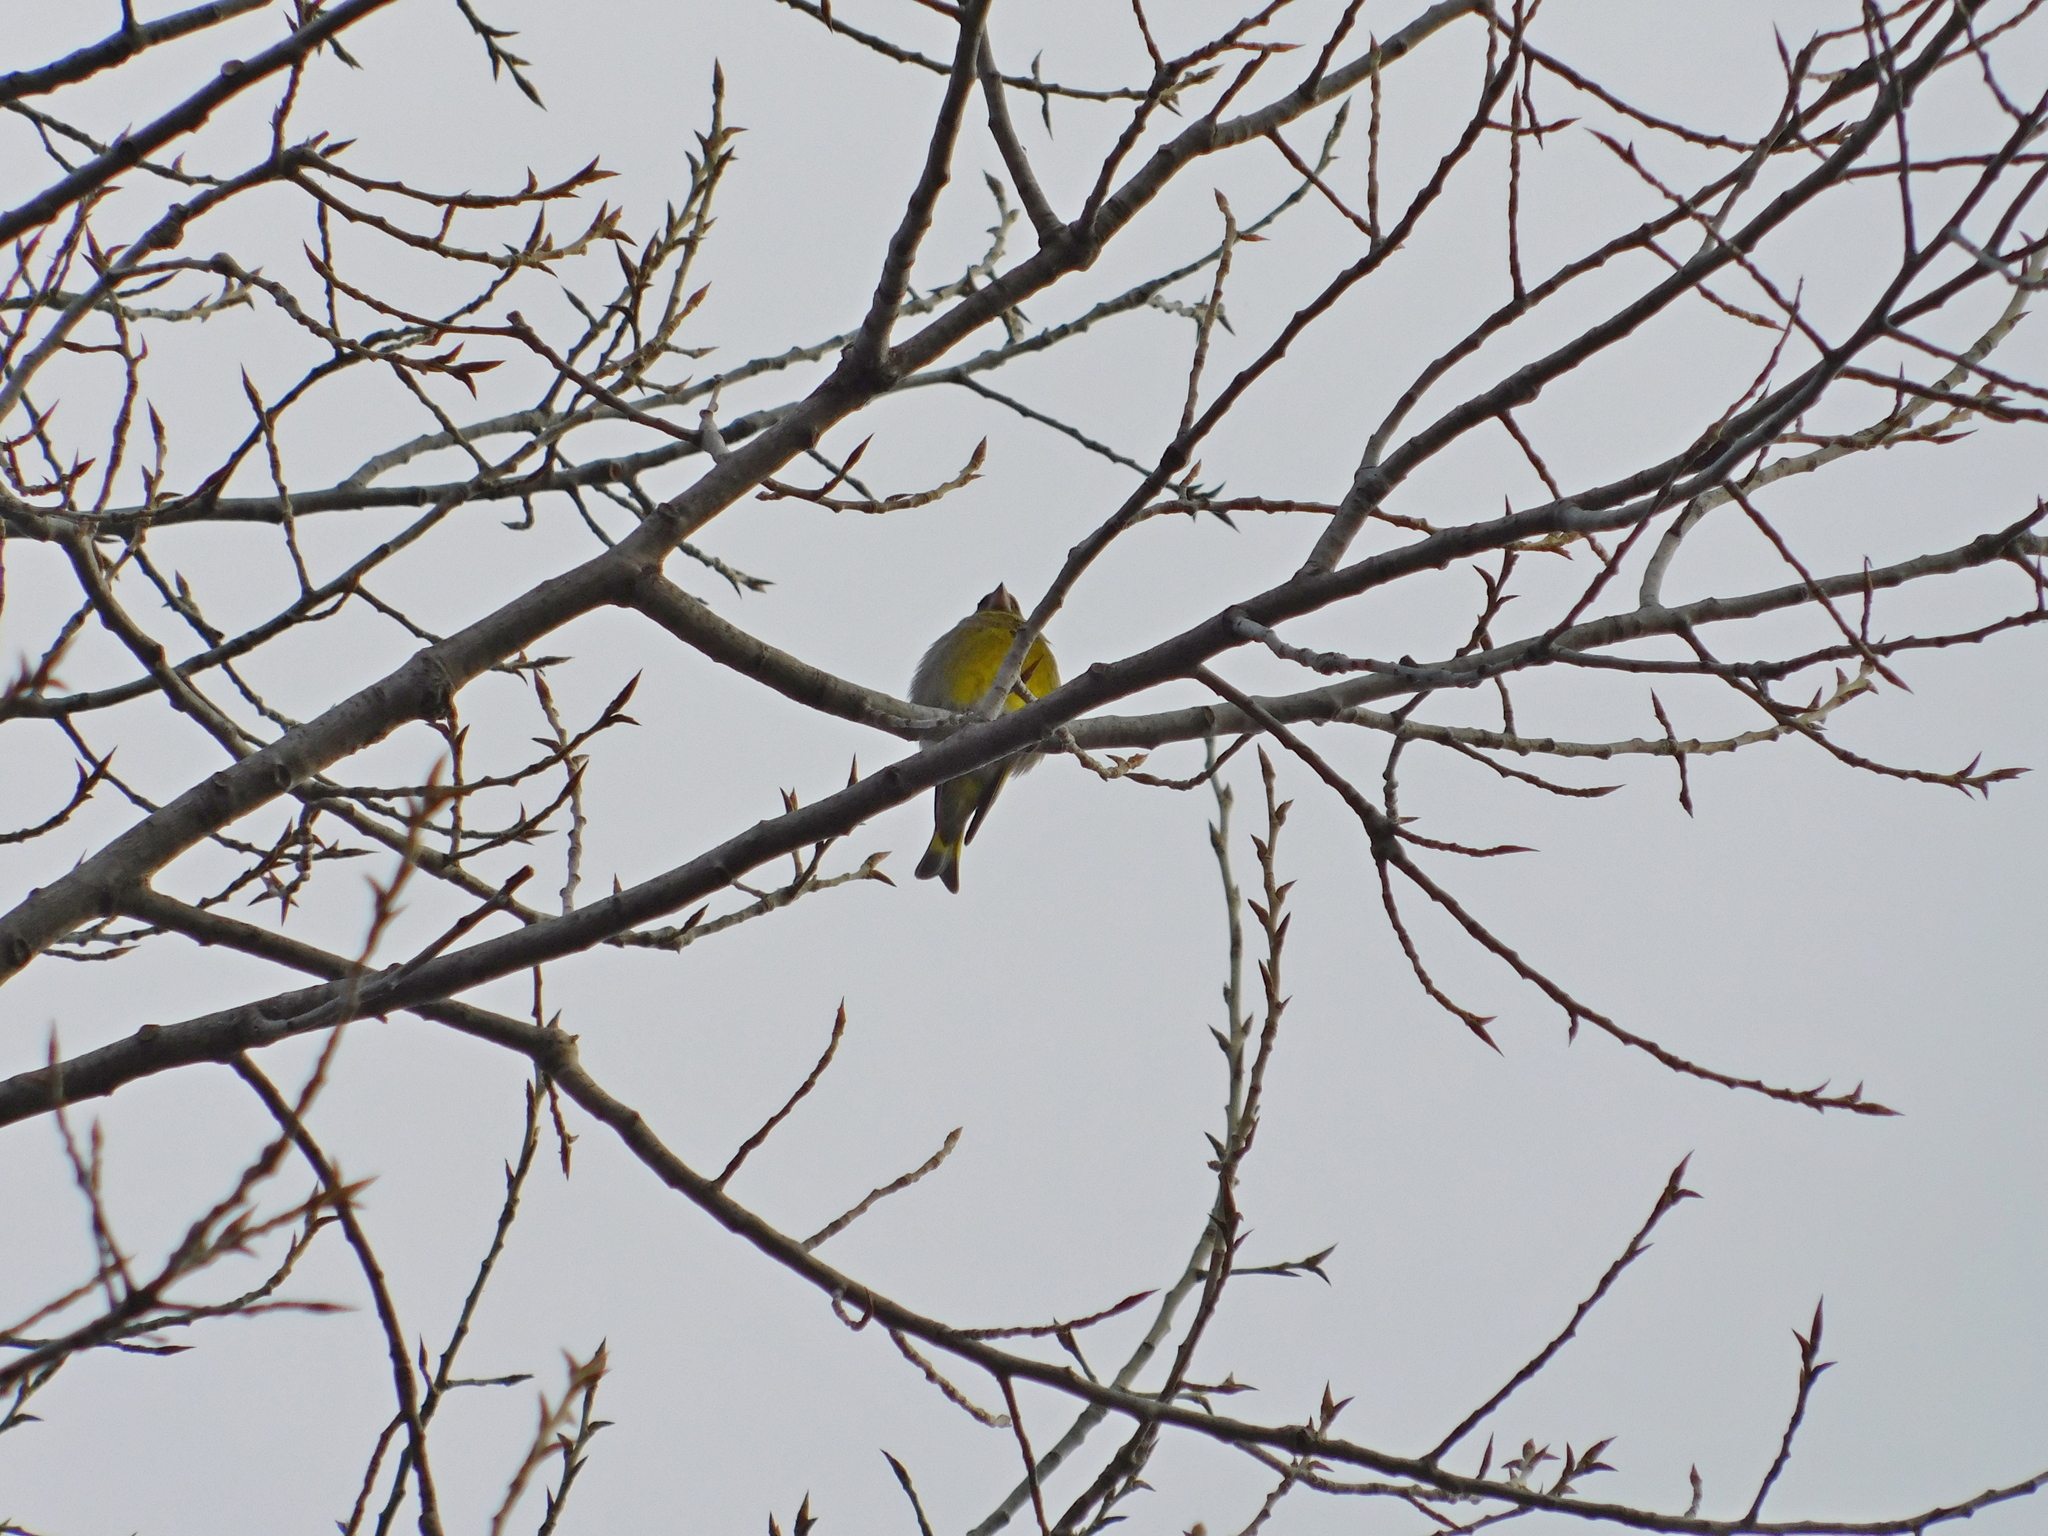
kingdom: Plantae
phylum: Tracheophyta
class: Liliopsida
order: Poales
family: Poaceae
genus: Chloris
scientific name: Chloris chloris
